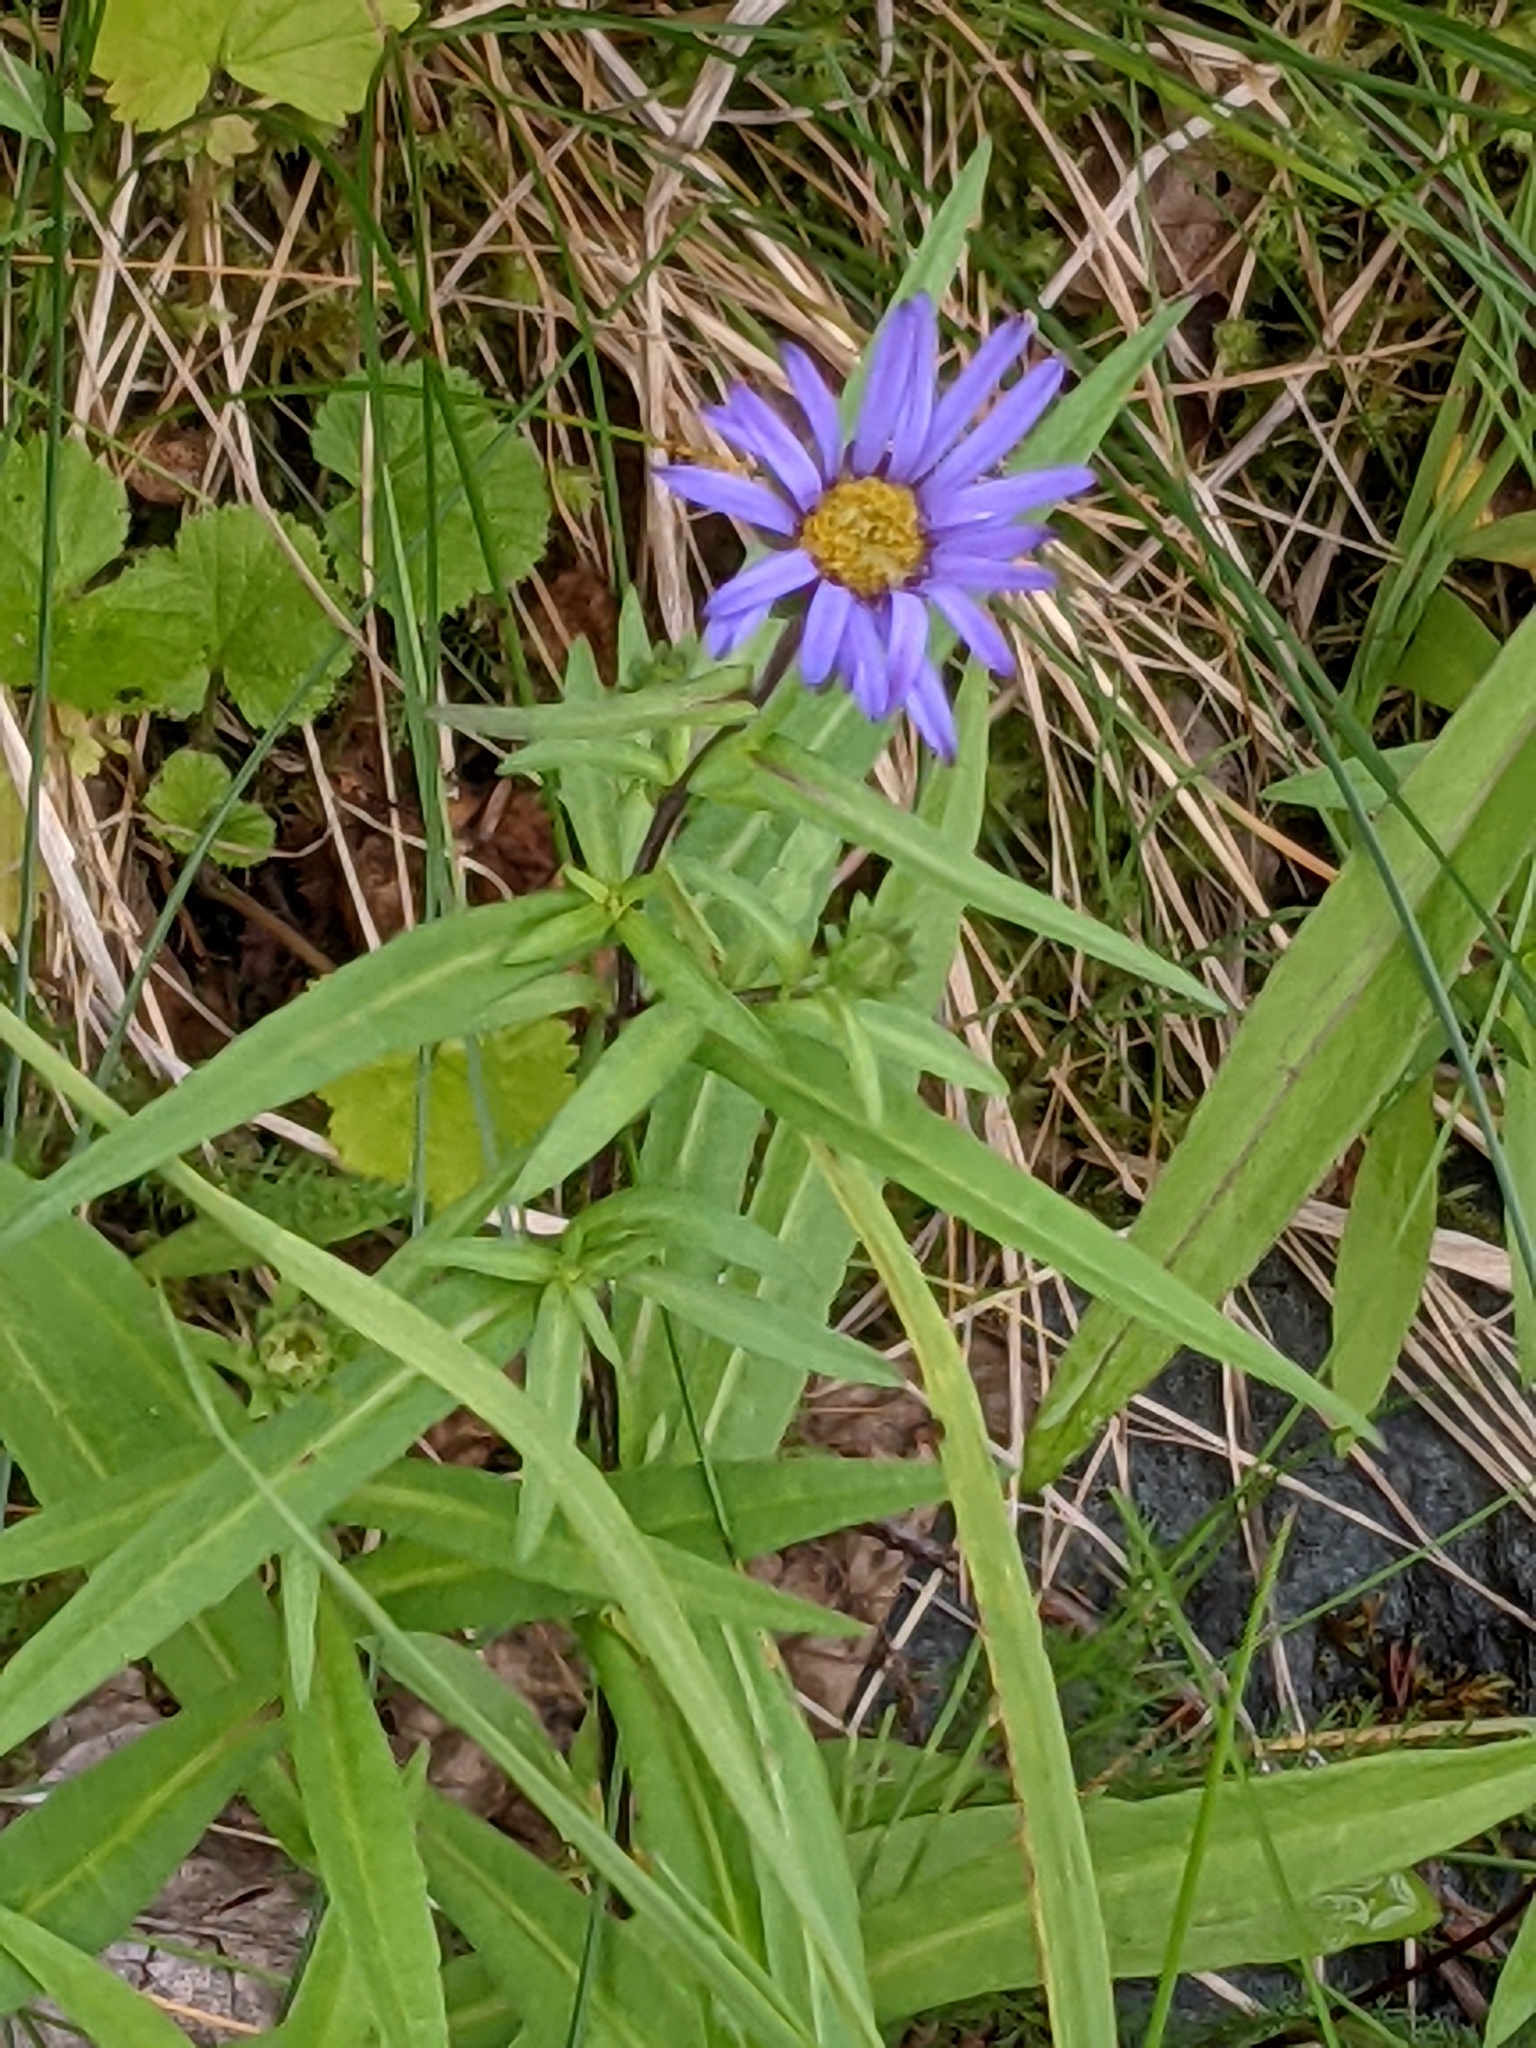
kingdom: Plantae
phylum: Tracheophyta
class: Magnoliopsida
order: Asterales
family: Asteraceae
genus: Symphyotrichum
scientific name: Symphyotrichum subspicatum
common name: Douglas' aster
